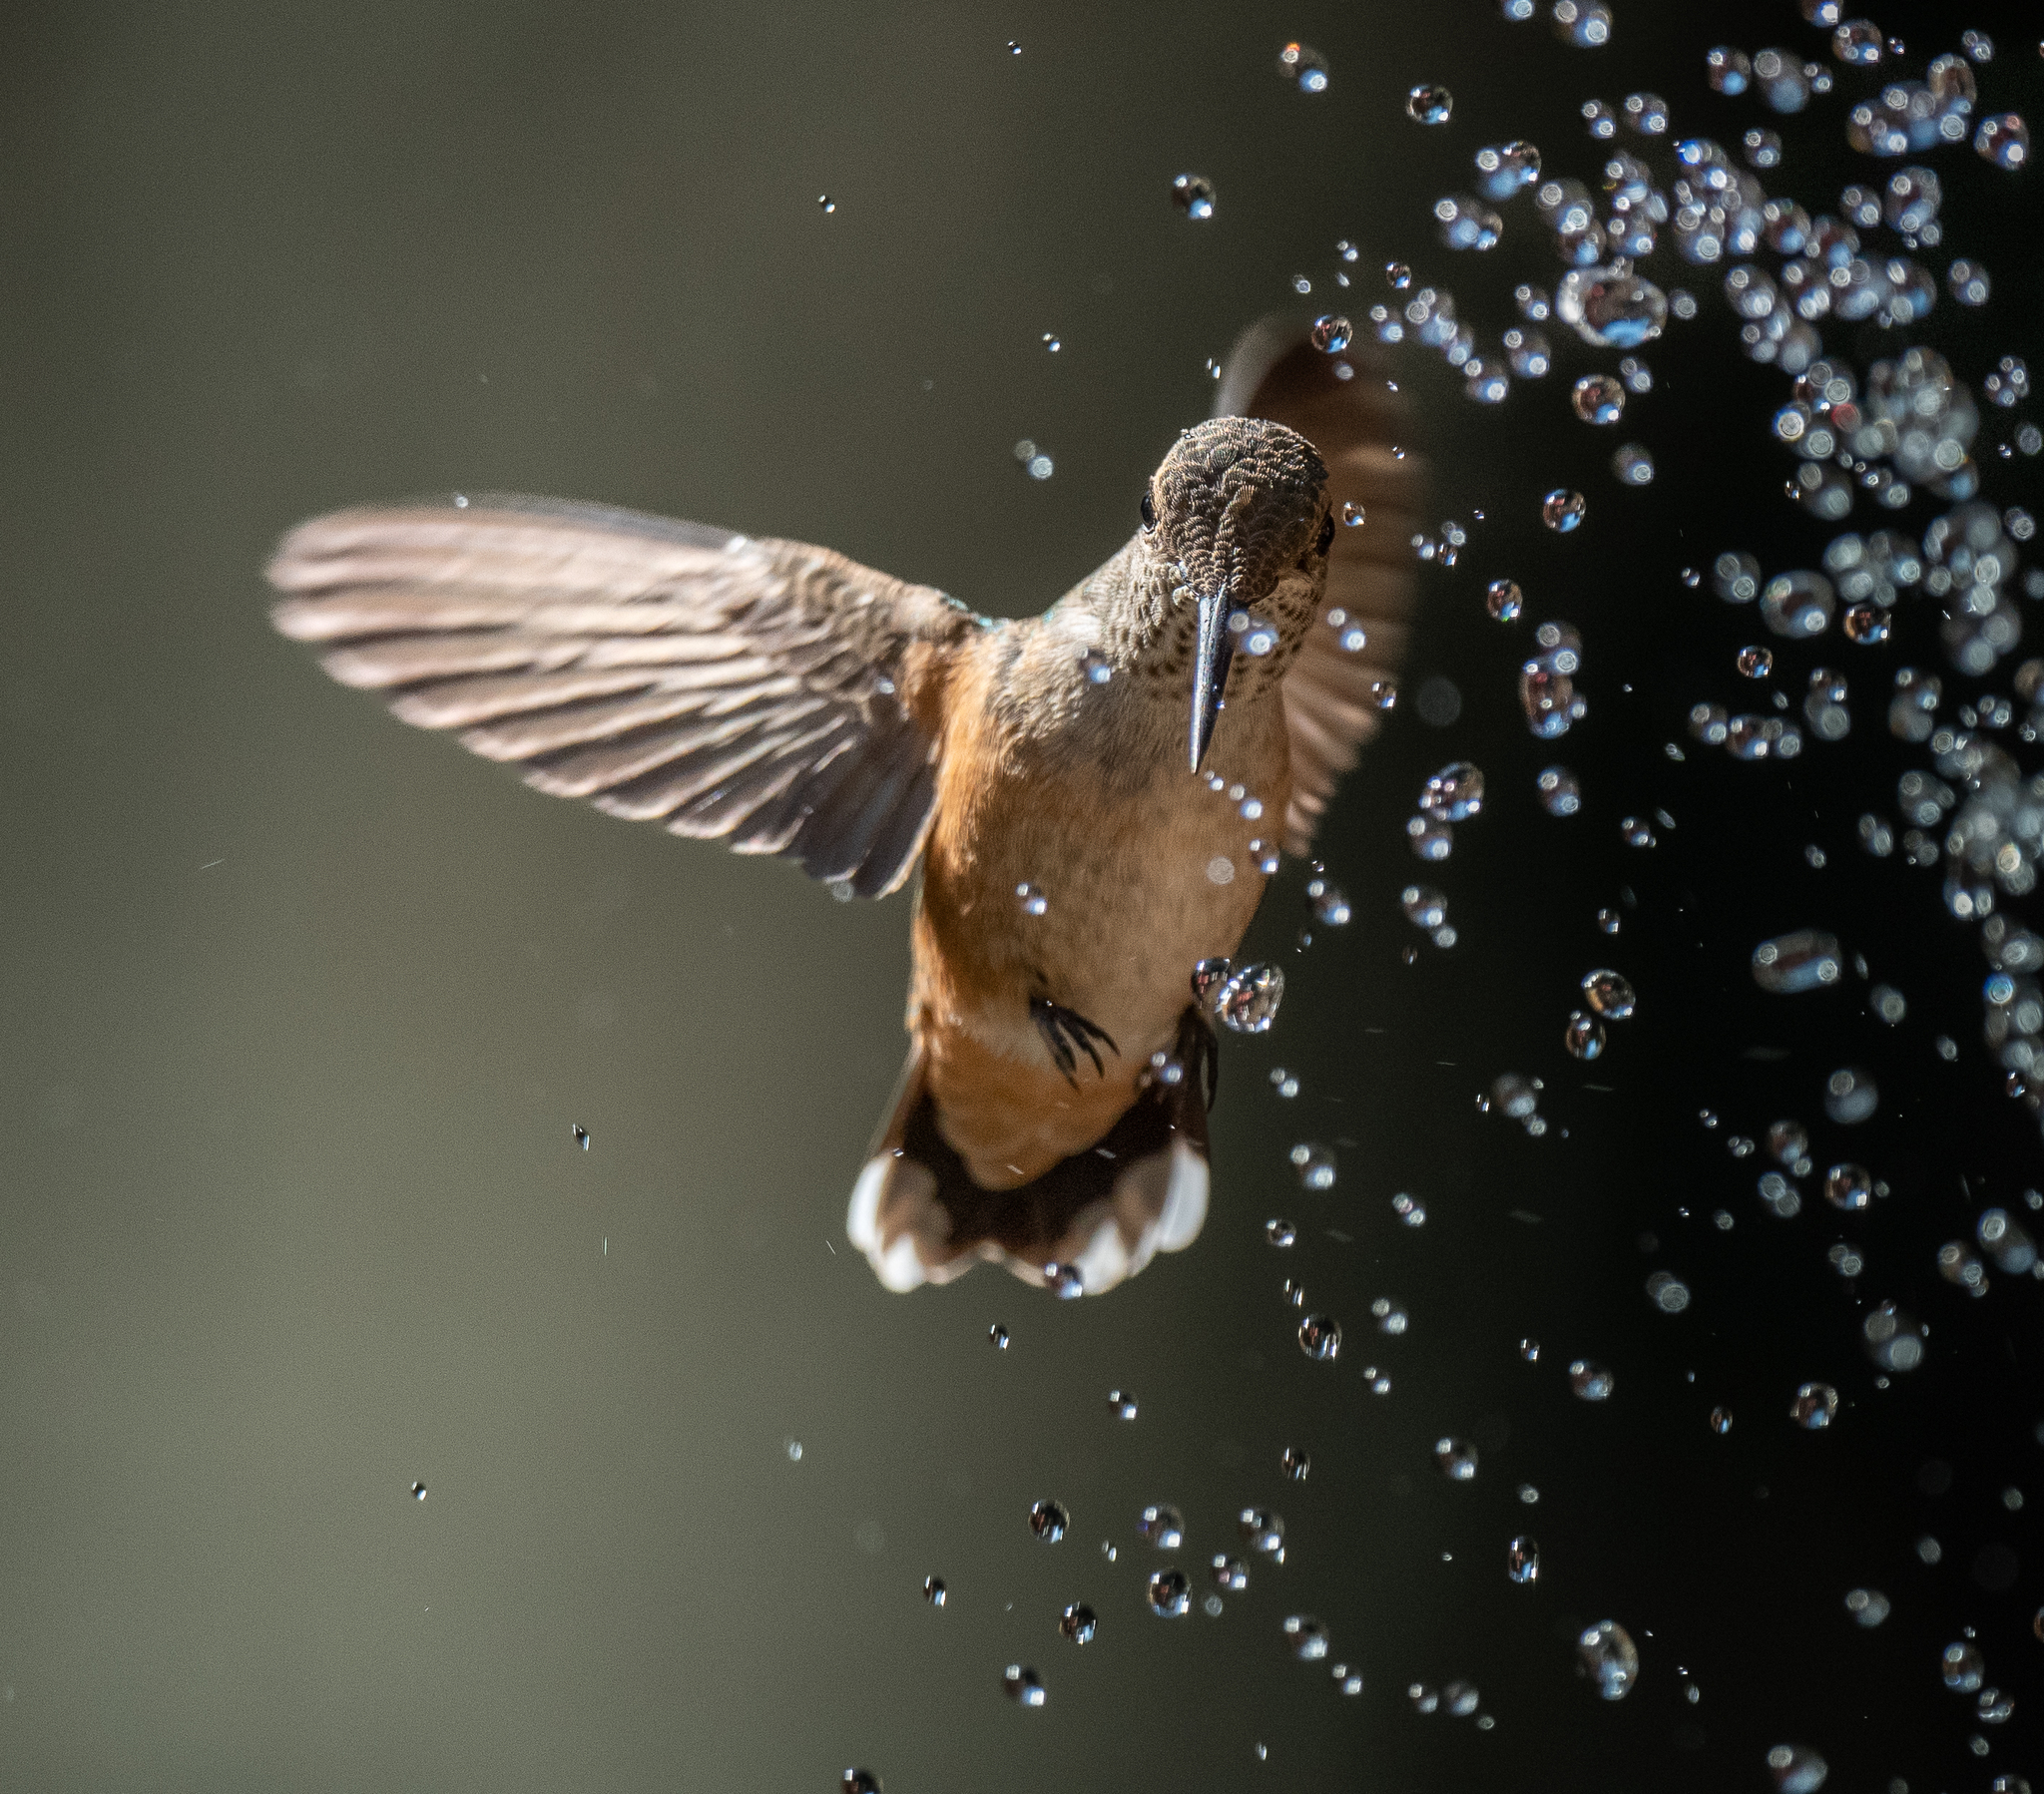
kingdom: Animalia
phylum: Chordata
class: Aves
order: Apodiformes
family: Trochilidae
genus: Selasphorus
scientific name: Selasphorus rufus
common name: Rufous hummingbird
